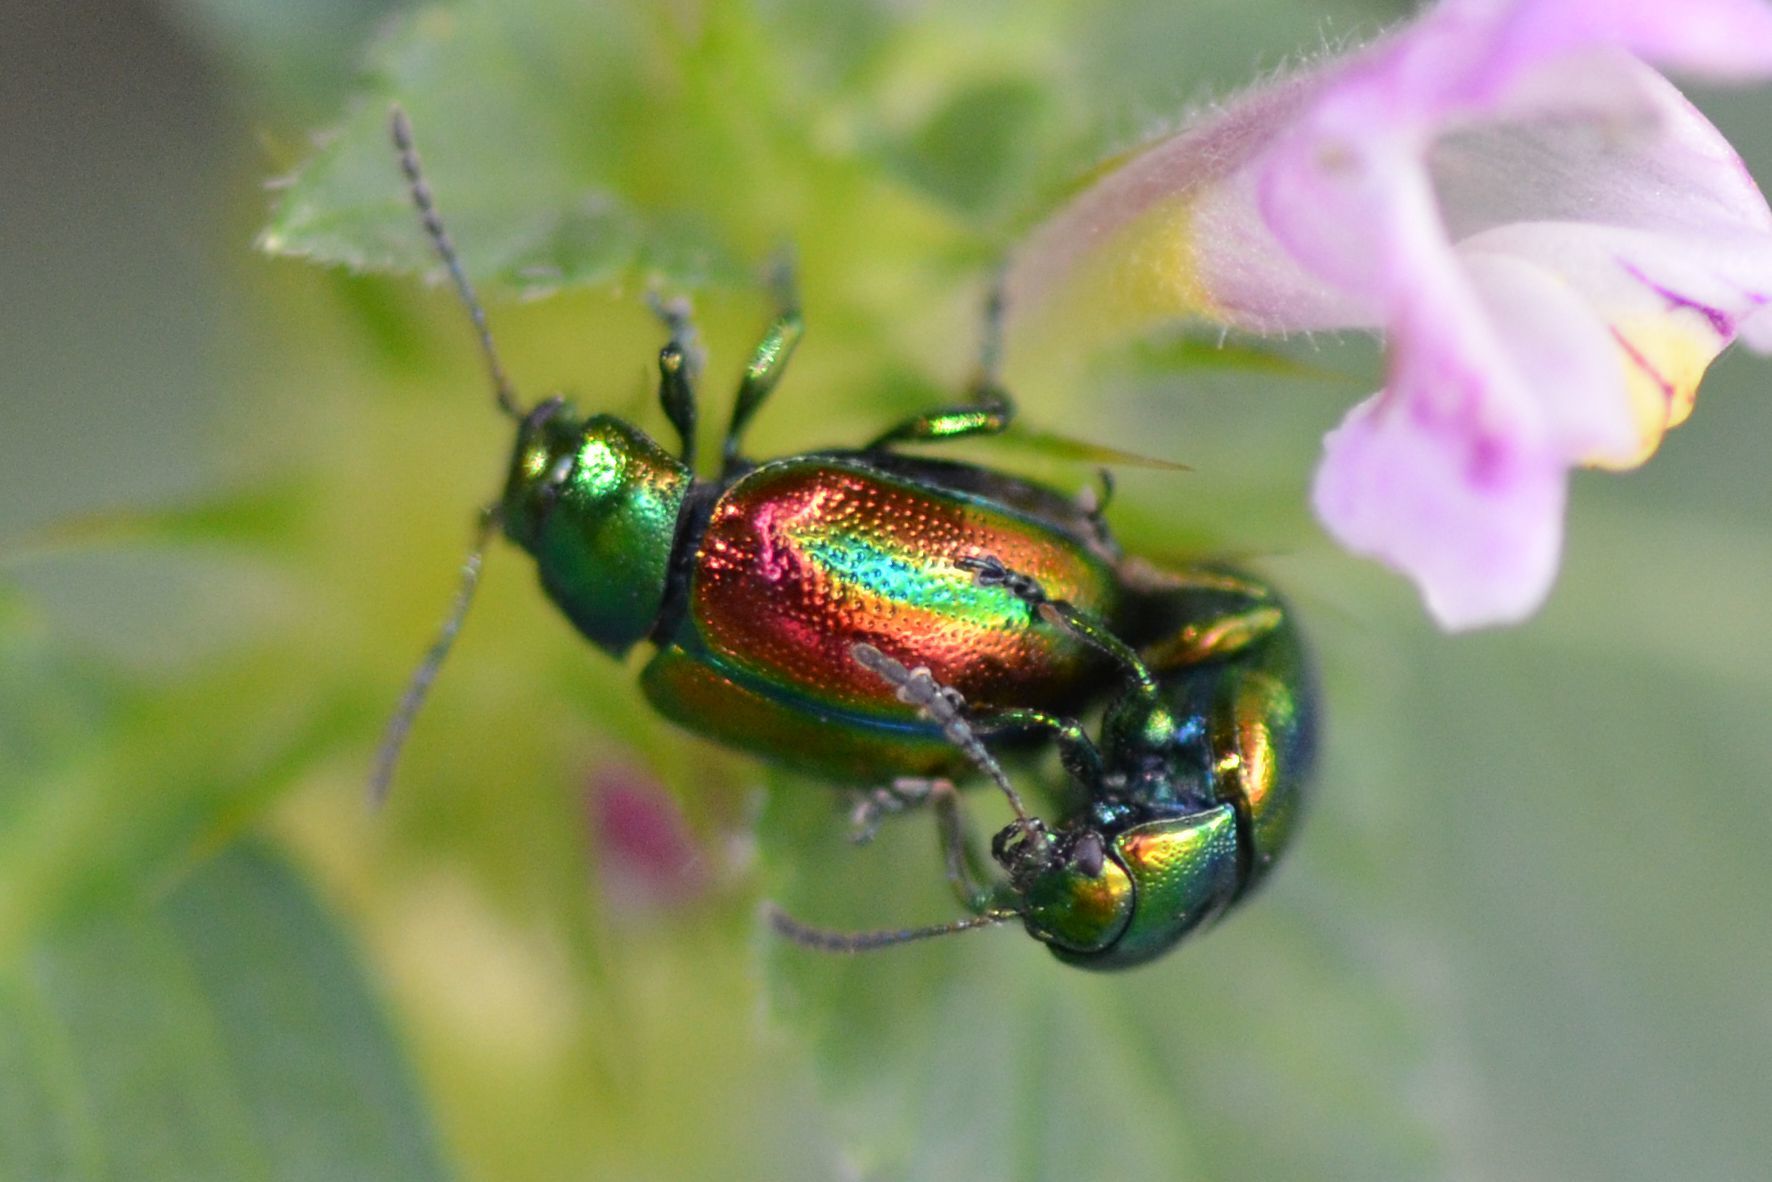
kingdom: Animalia
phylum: Arthropoda
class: Insecta
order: Coleoptera
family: Chrysomelidae
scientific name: Chrysomelidae
